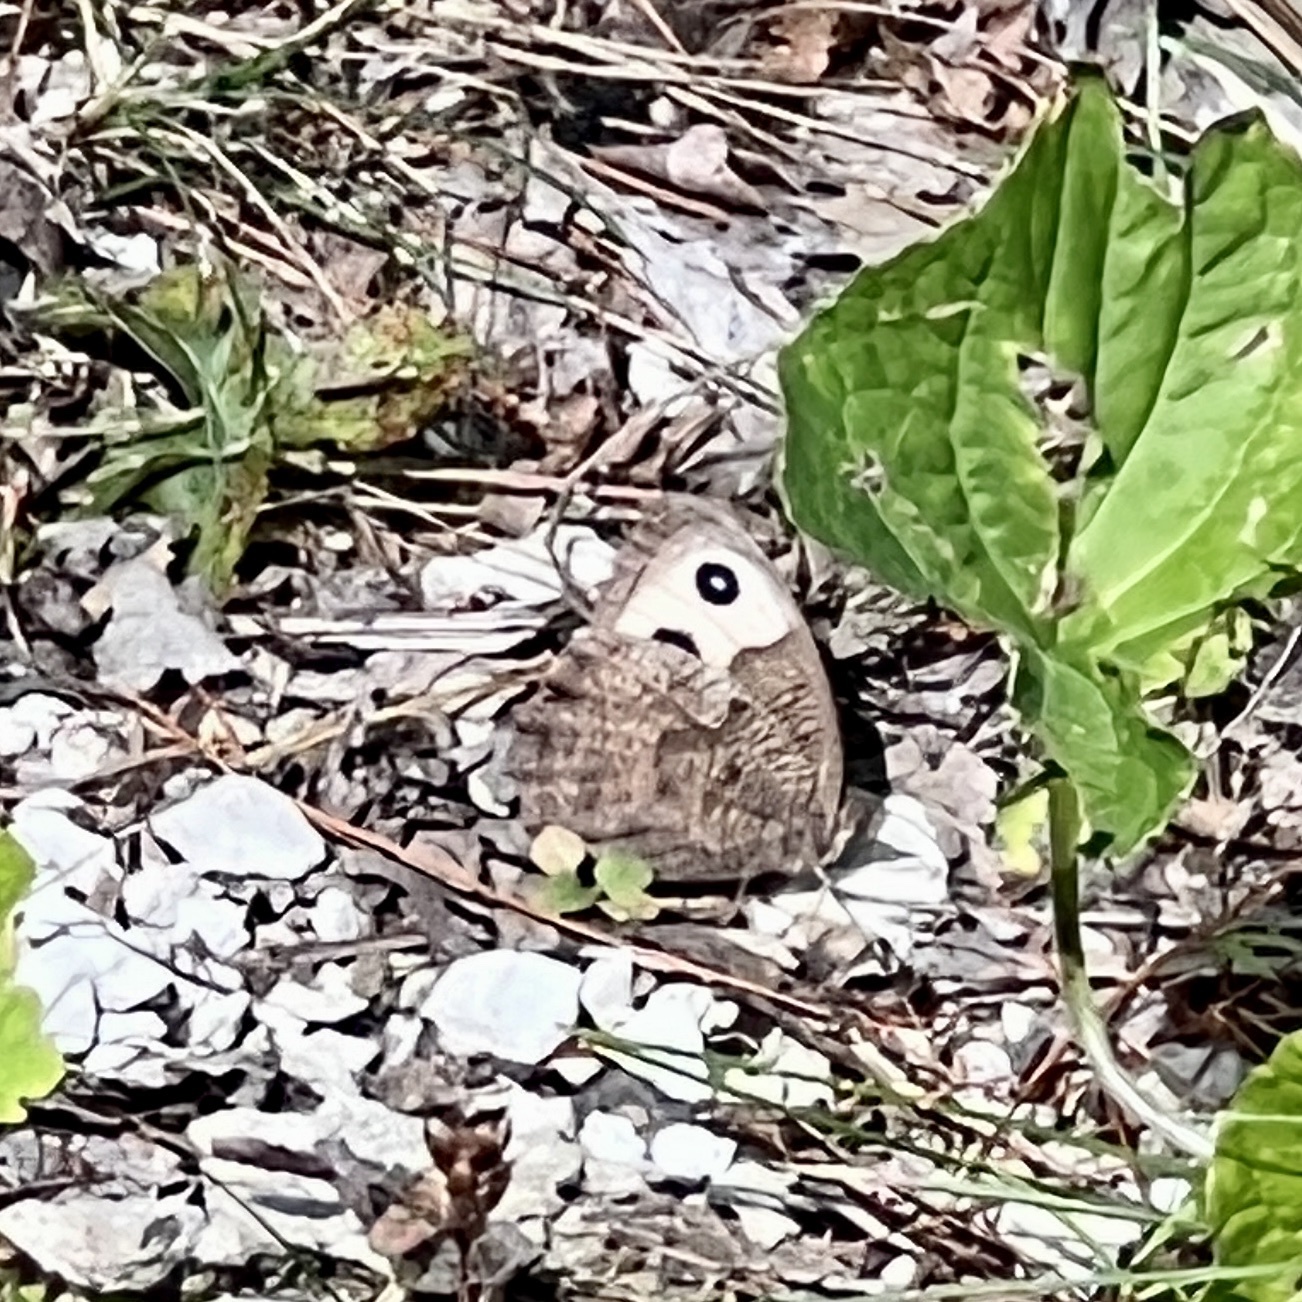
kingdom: Animalia
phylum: Arthropoda
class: Insecta
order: Lepidoptera
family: Nymphalidae
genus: Cercyonis
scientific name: Cercyonis pegala
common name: Common wood-nymph
